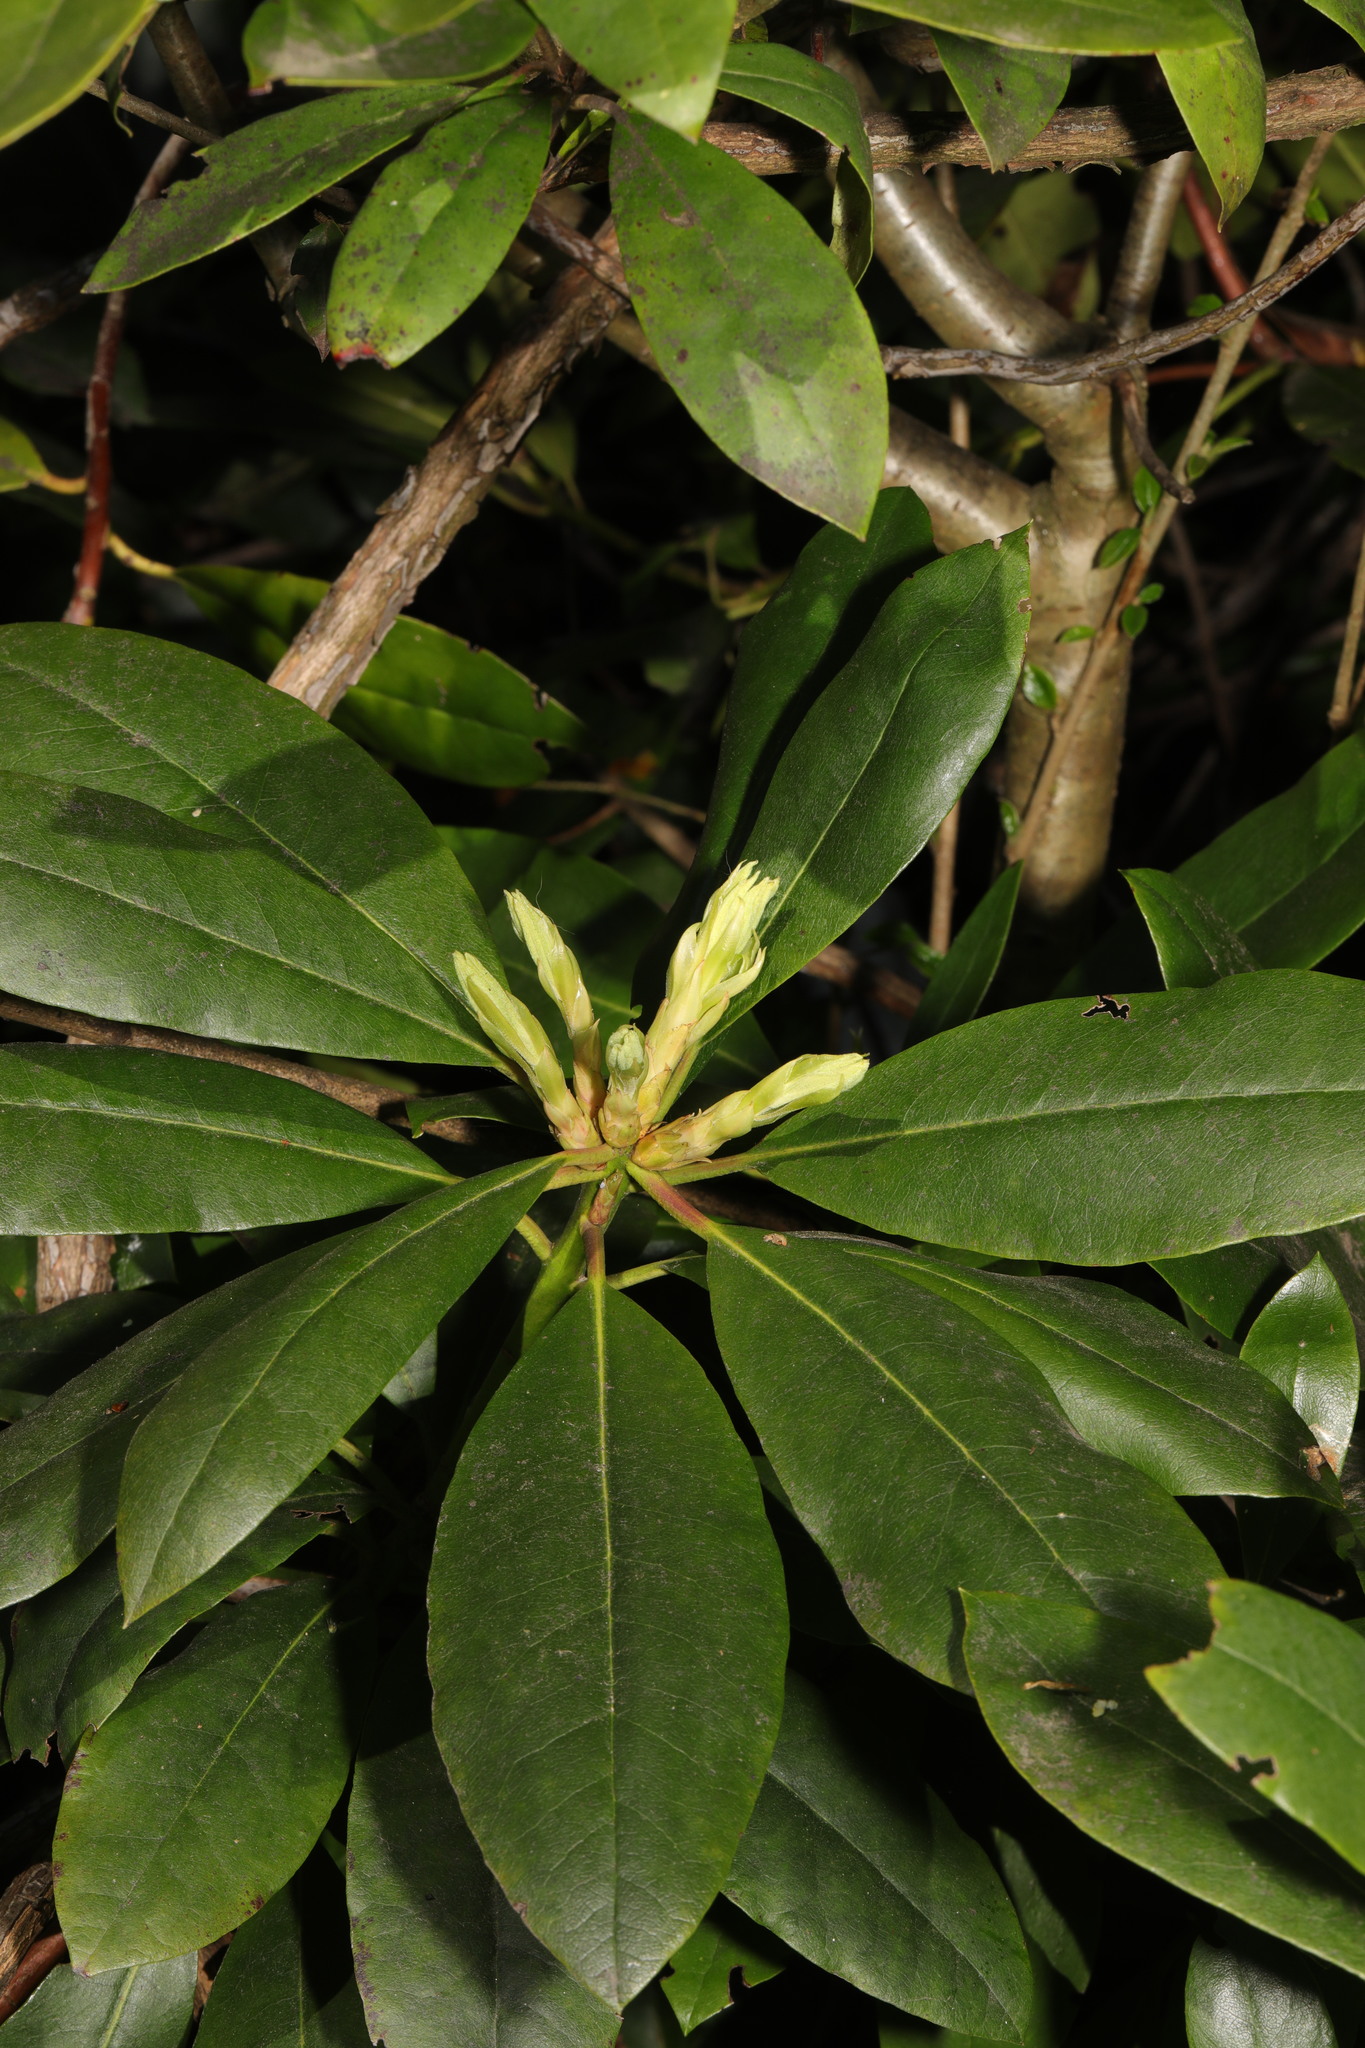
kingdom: Plantae
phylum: Tracheophyta
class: Magnoliopsida
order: Ericales
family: Ericaceae
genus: Rhododendron
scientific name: Rhododendron ponticum
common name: Rhododendron
